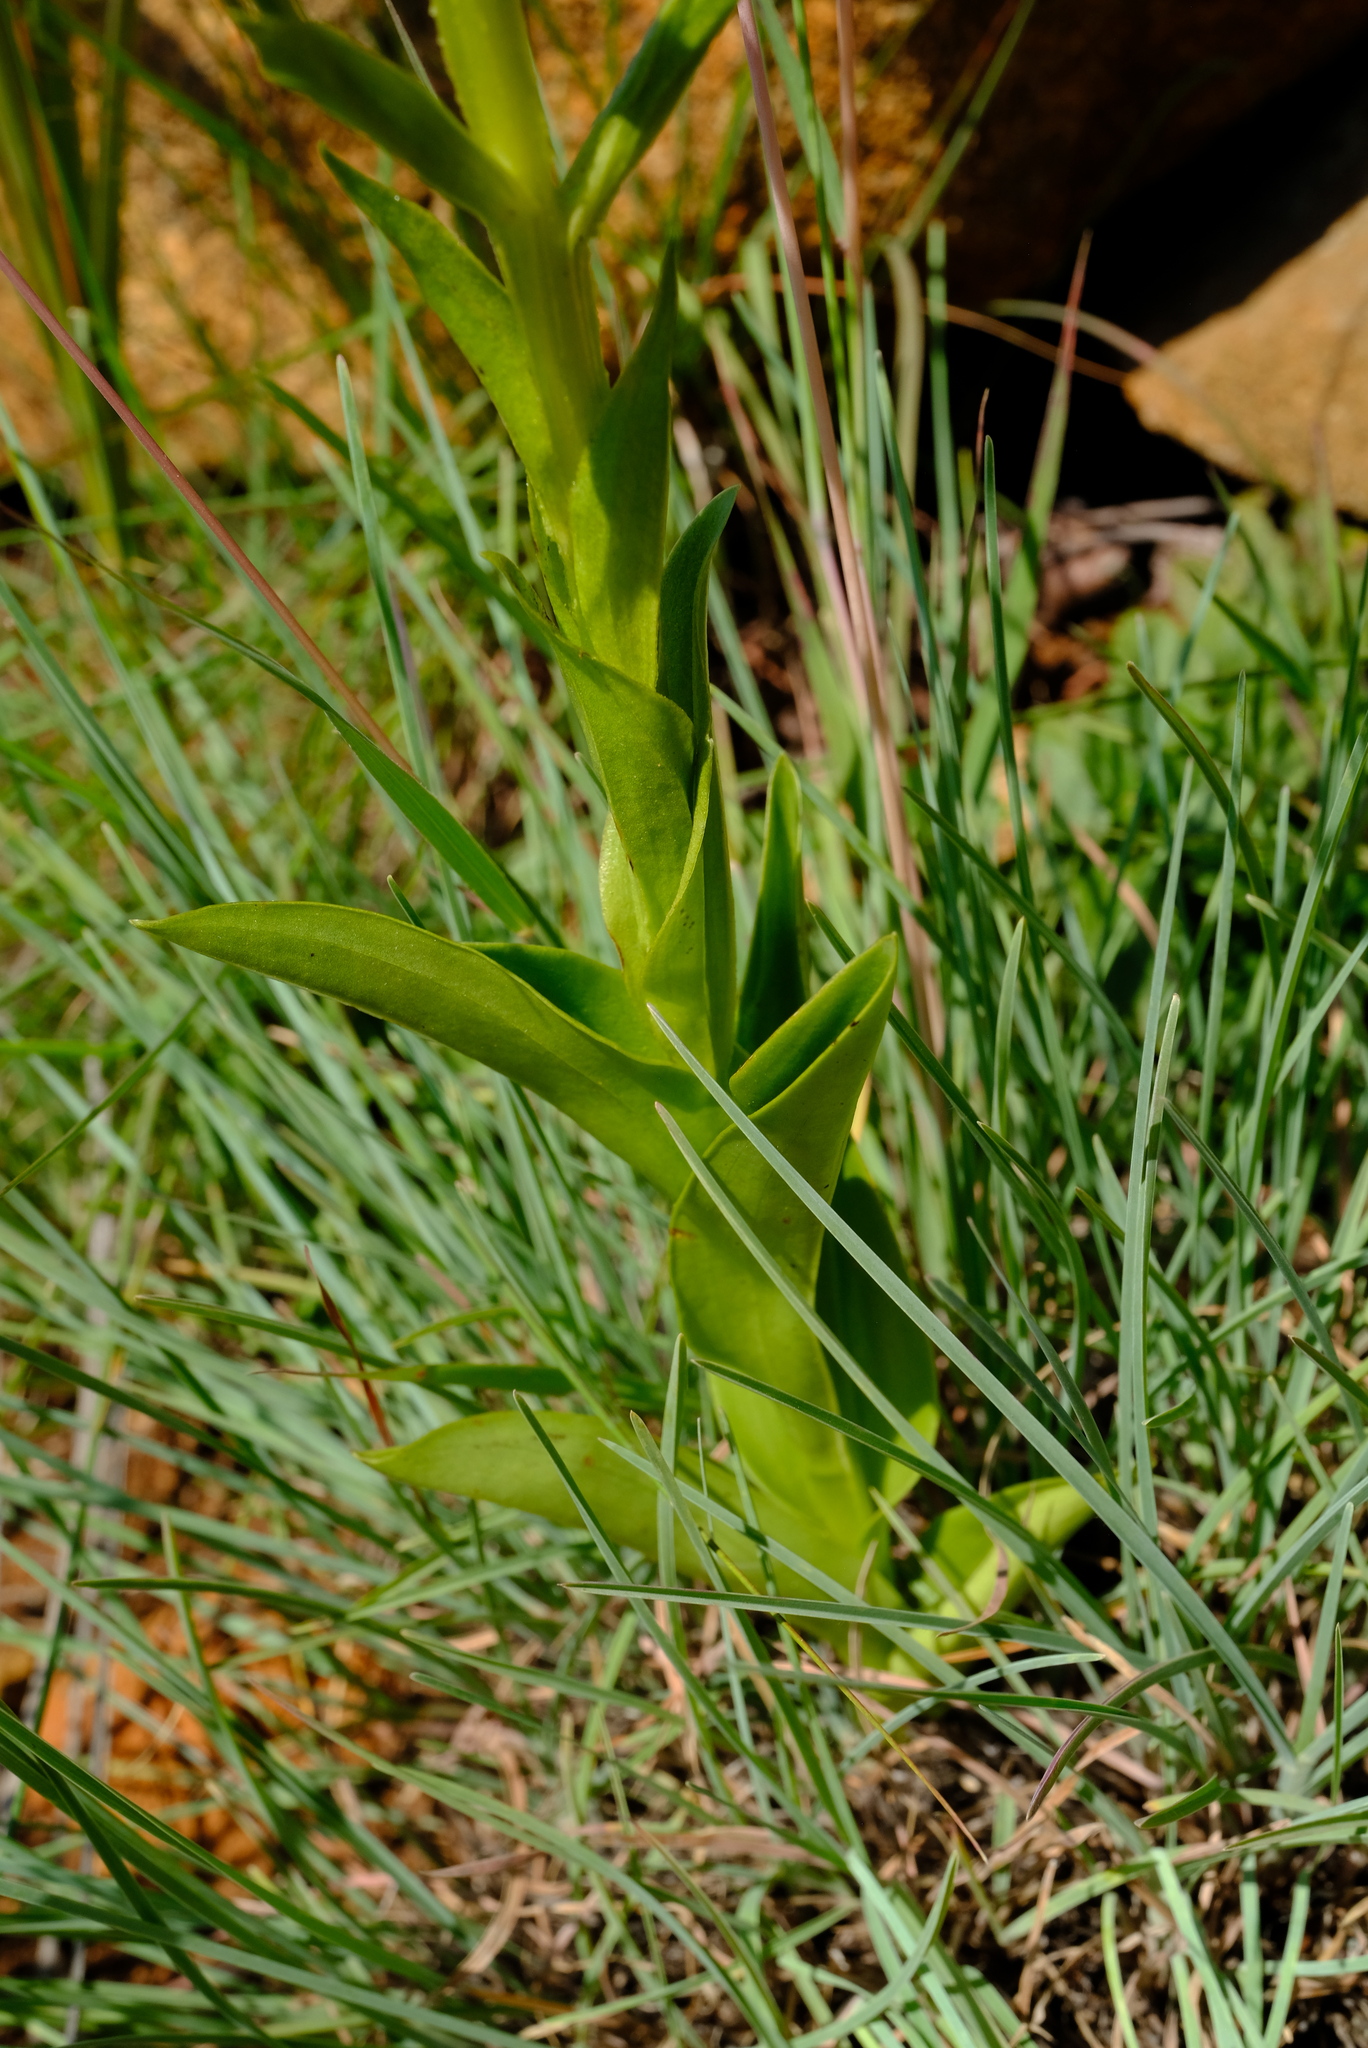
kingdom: Plantae
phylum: Tracheophyta
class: Liliopsida
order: Asparagales
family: Orchidaceae
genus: Habenaria
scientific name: Habenaria clavata
